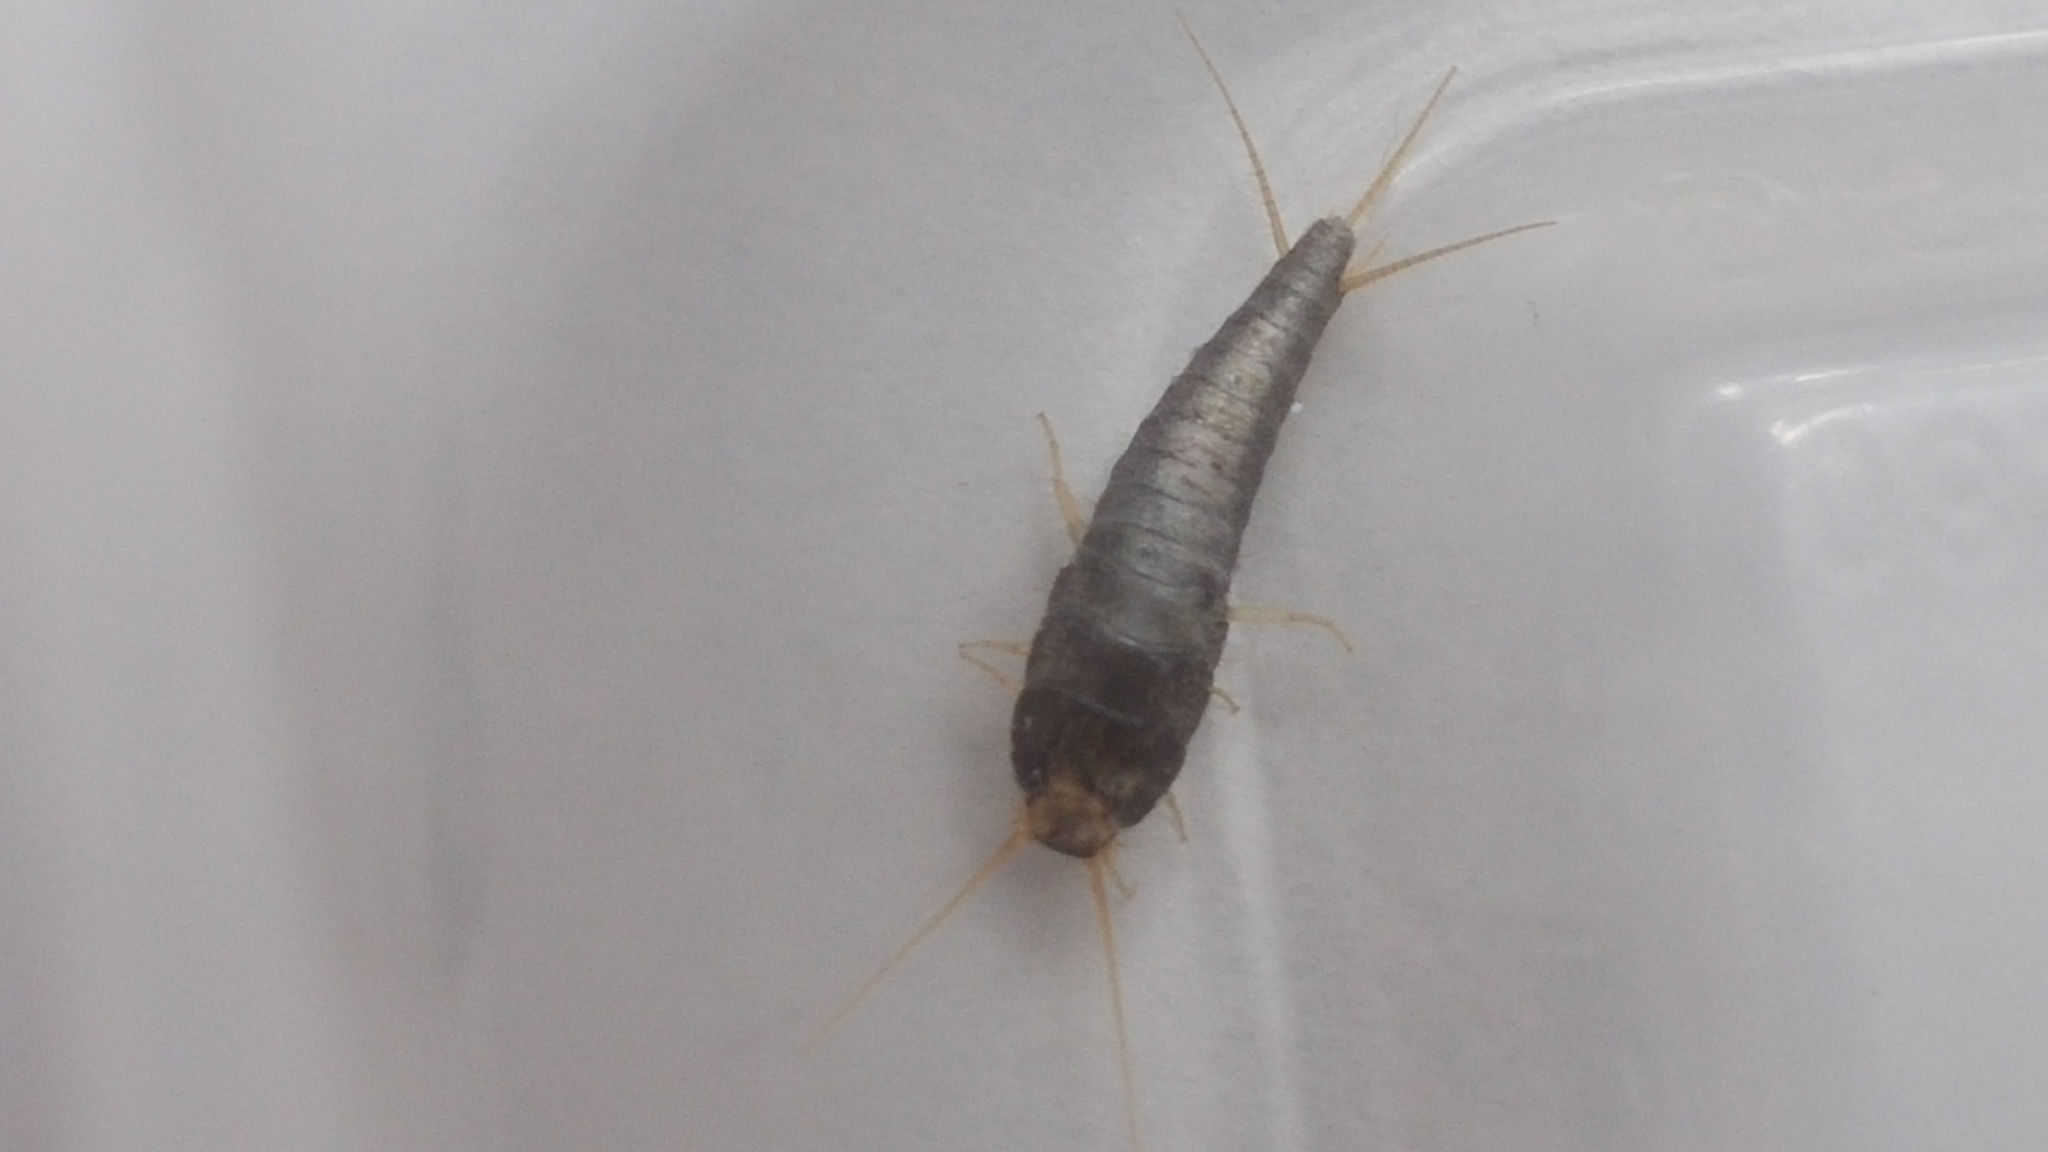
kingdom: Animalia
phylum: Arthropoda
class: Insecta
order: Zygentoma
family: Lepismatidae
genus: Lepisma
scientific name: Lepisma saccharinum
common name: Silverfish
